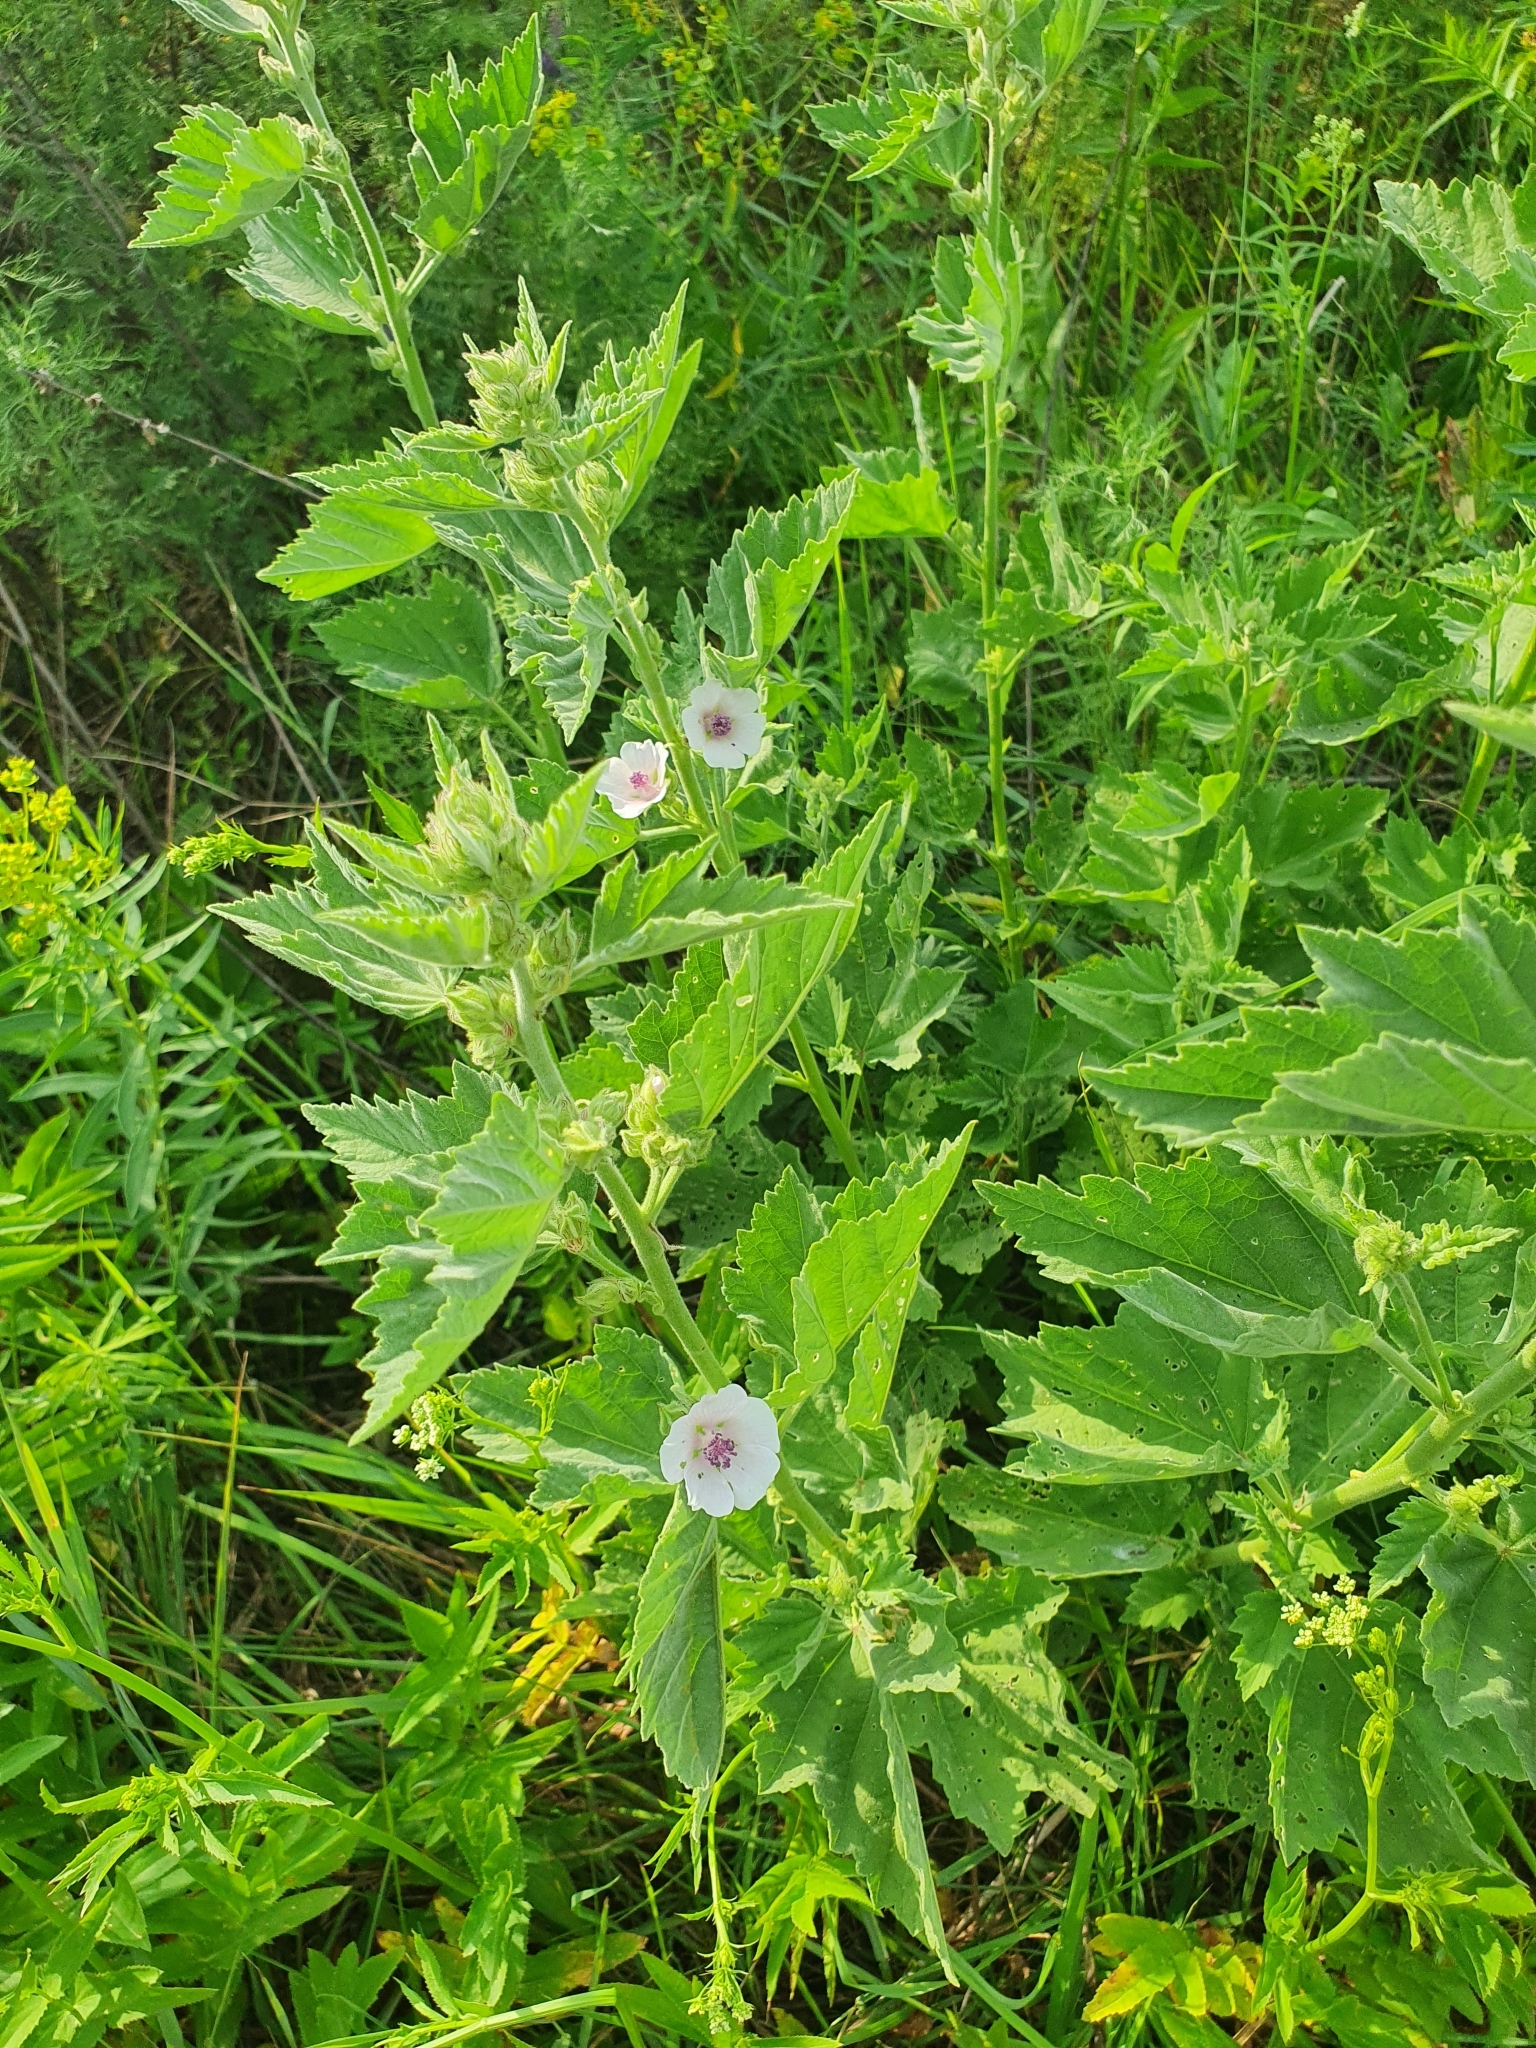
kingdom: Plantae
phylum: Tracheophyta
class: Magnoliopsida
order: Malvales
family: Malvaceae
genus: Althaea
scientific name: Althaea officinalis
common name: Marsh-mallow
